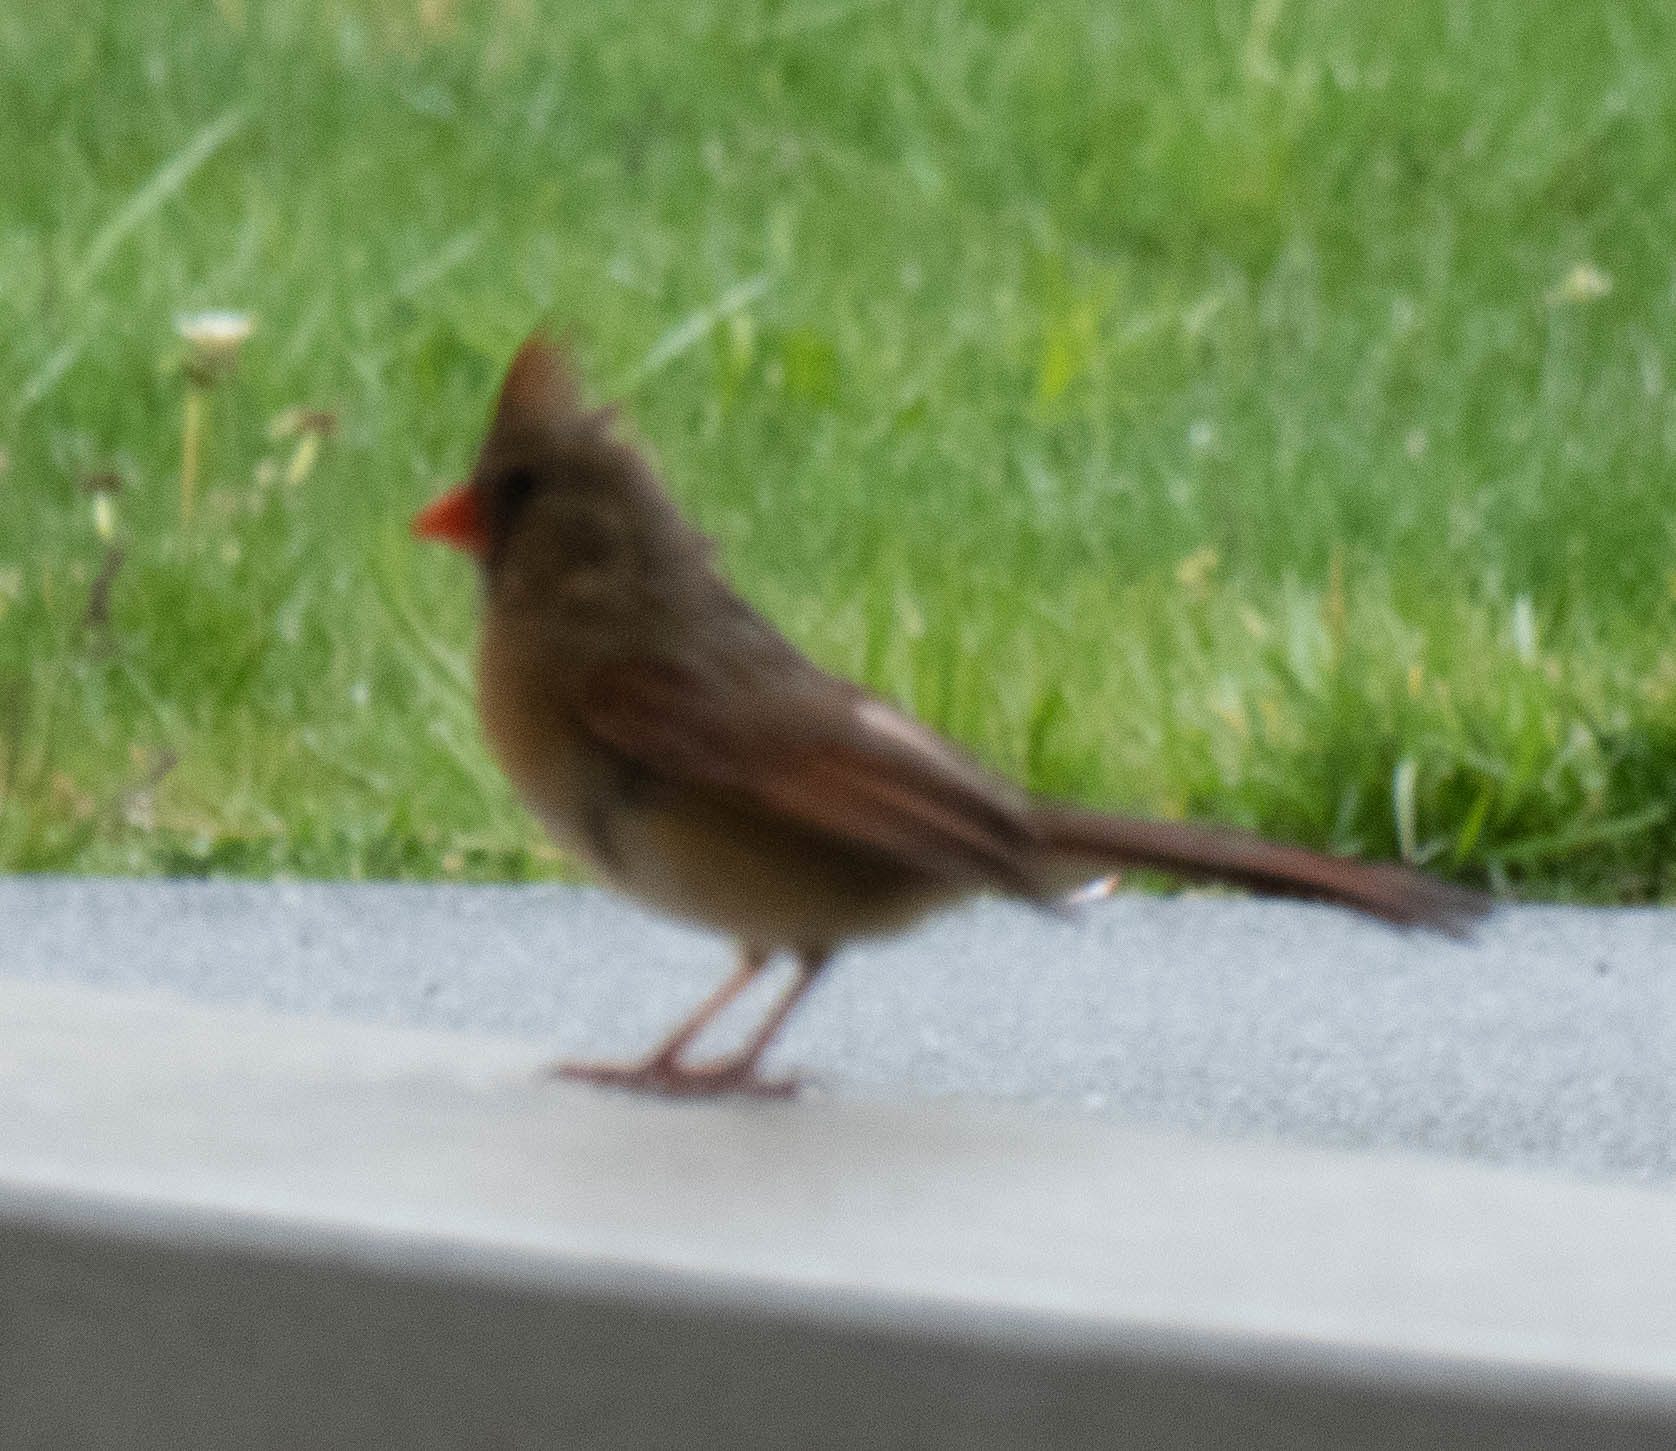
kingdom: Animalia
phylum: Chordata
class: Aves
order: Passeriformes
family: Cardinalidae
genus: Cardinalis
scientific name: Cardinalis cardinalis
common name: Northern cardinal
